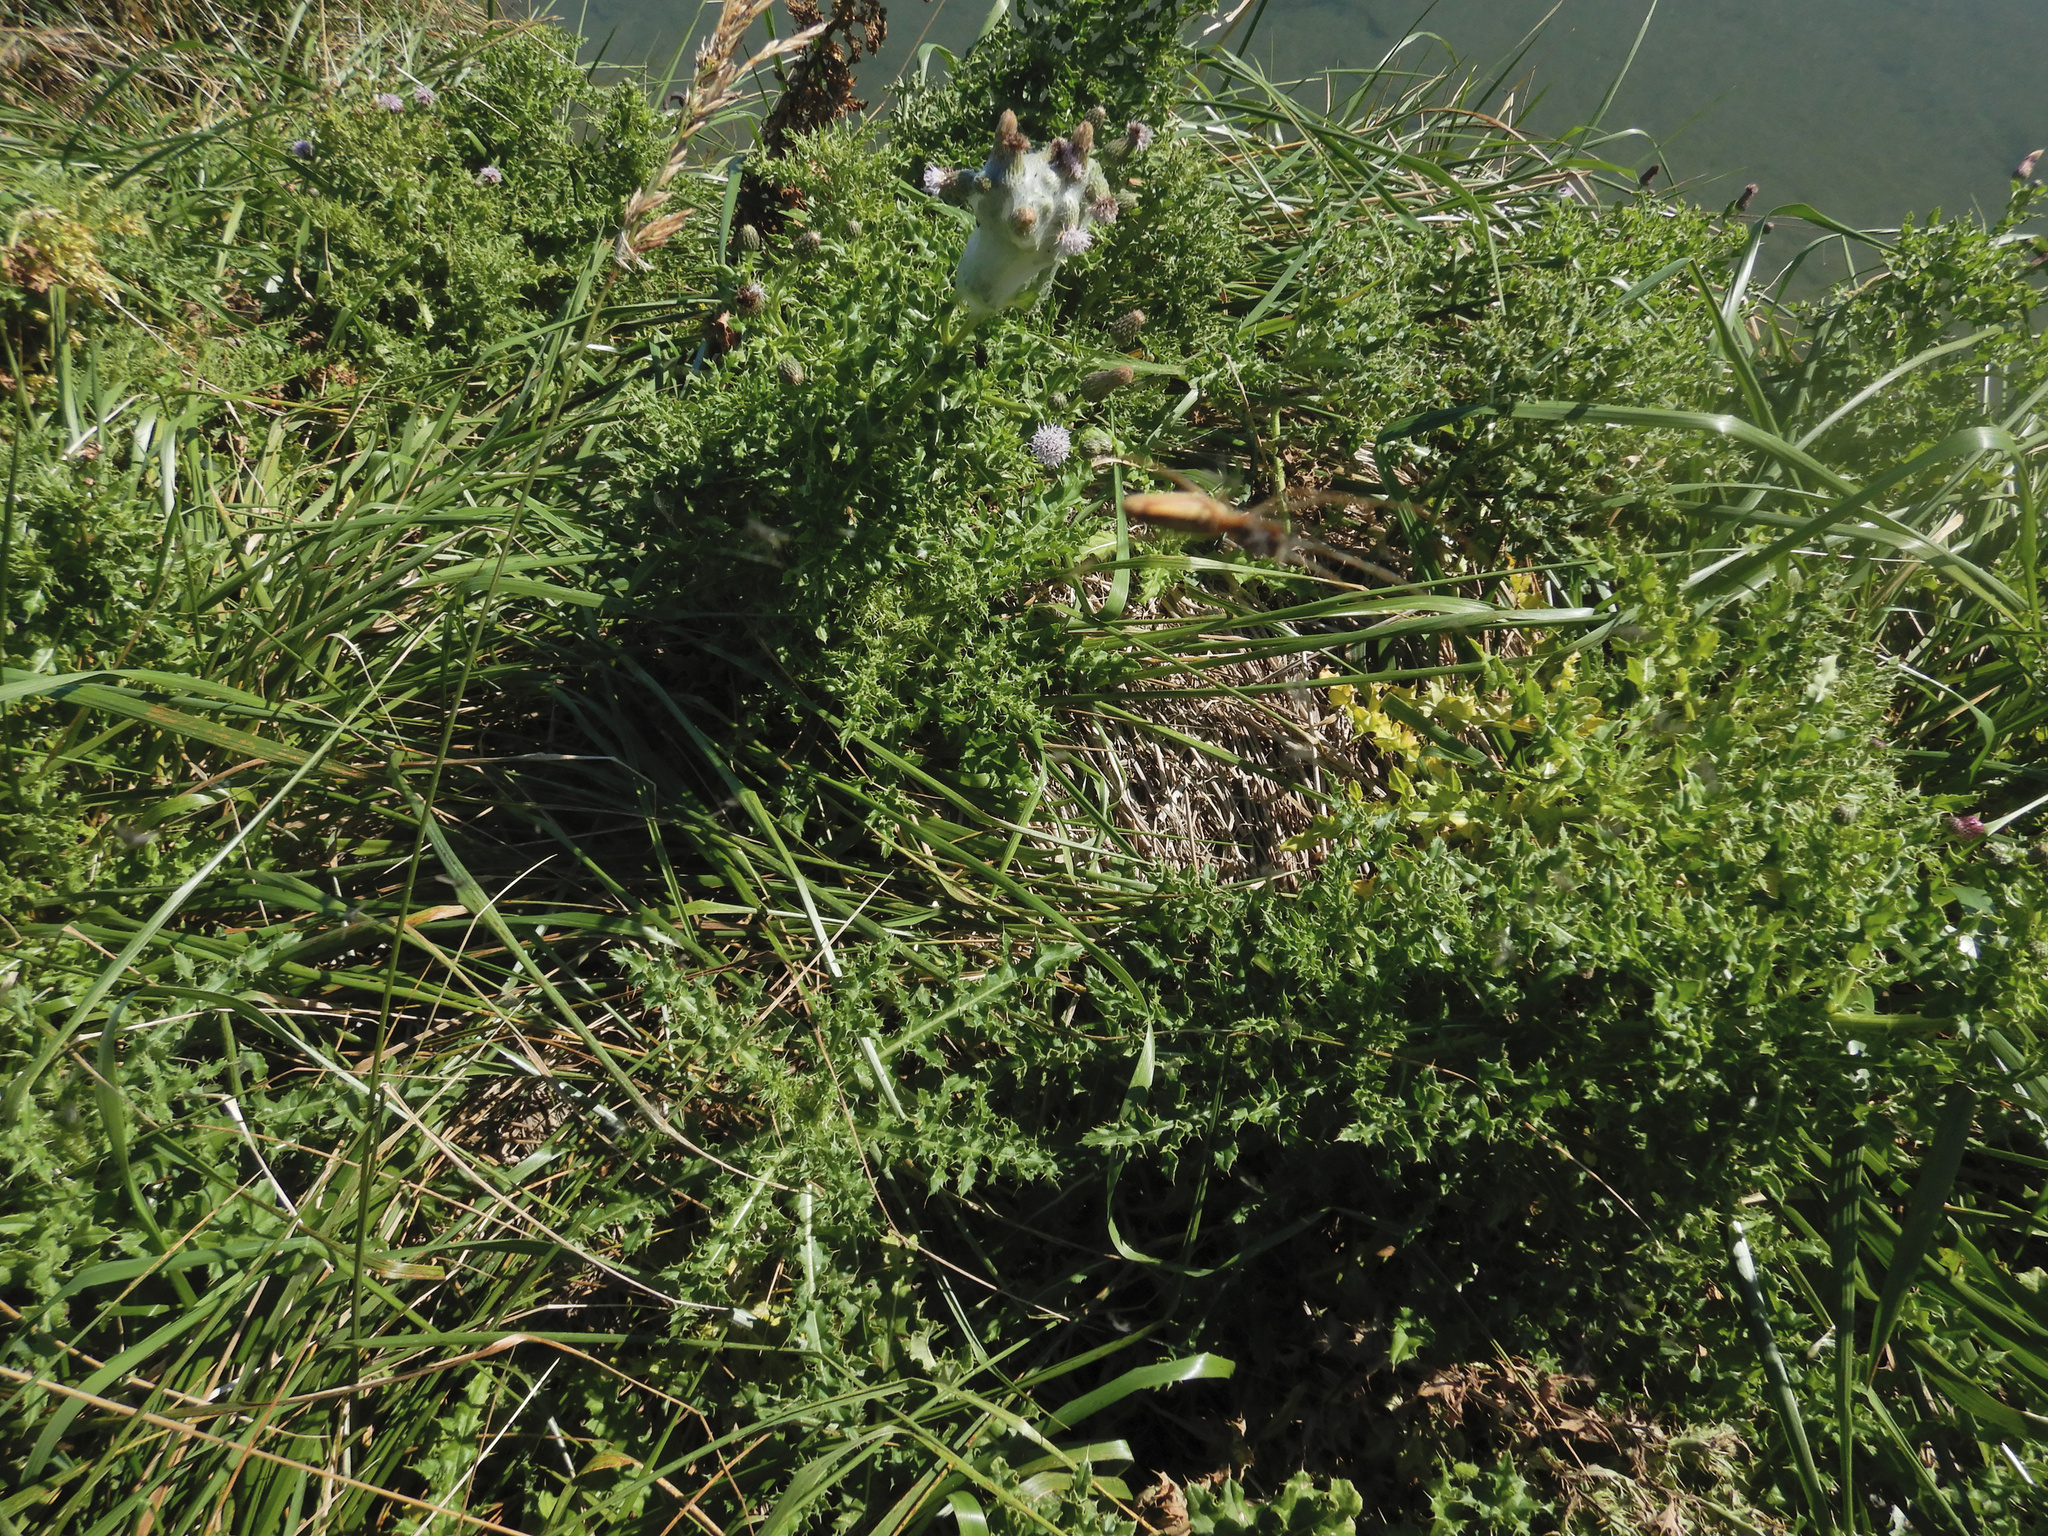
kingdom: Plantae
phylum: Tracheophyta
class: Magnoliopsida
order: Asterales
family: Asteraceae
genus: Cirsium
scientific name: Cirsium arvense
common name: Creeping thistle
